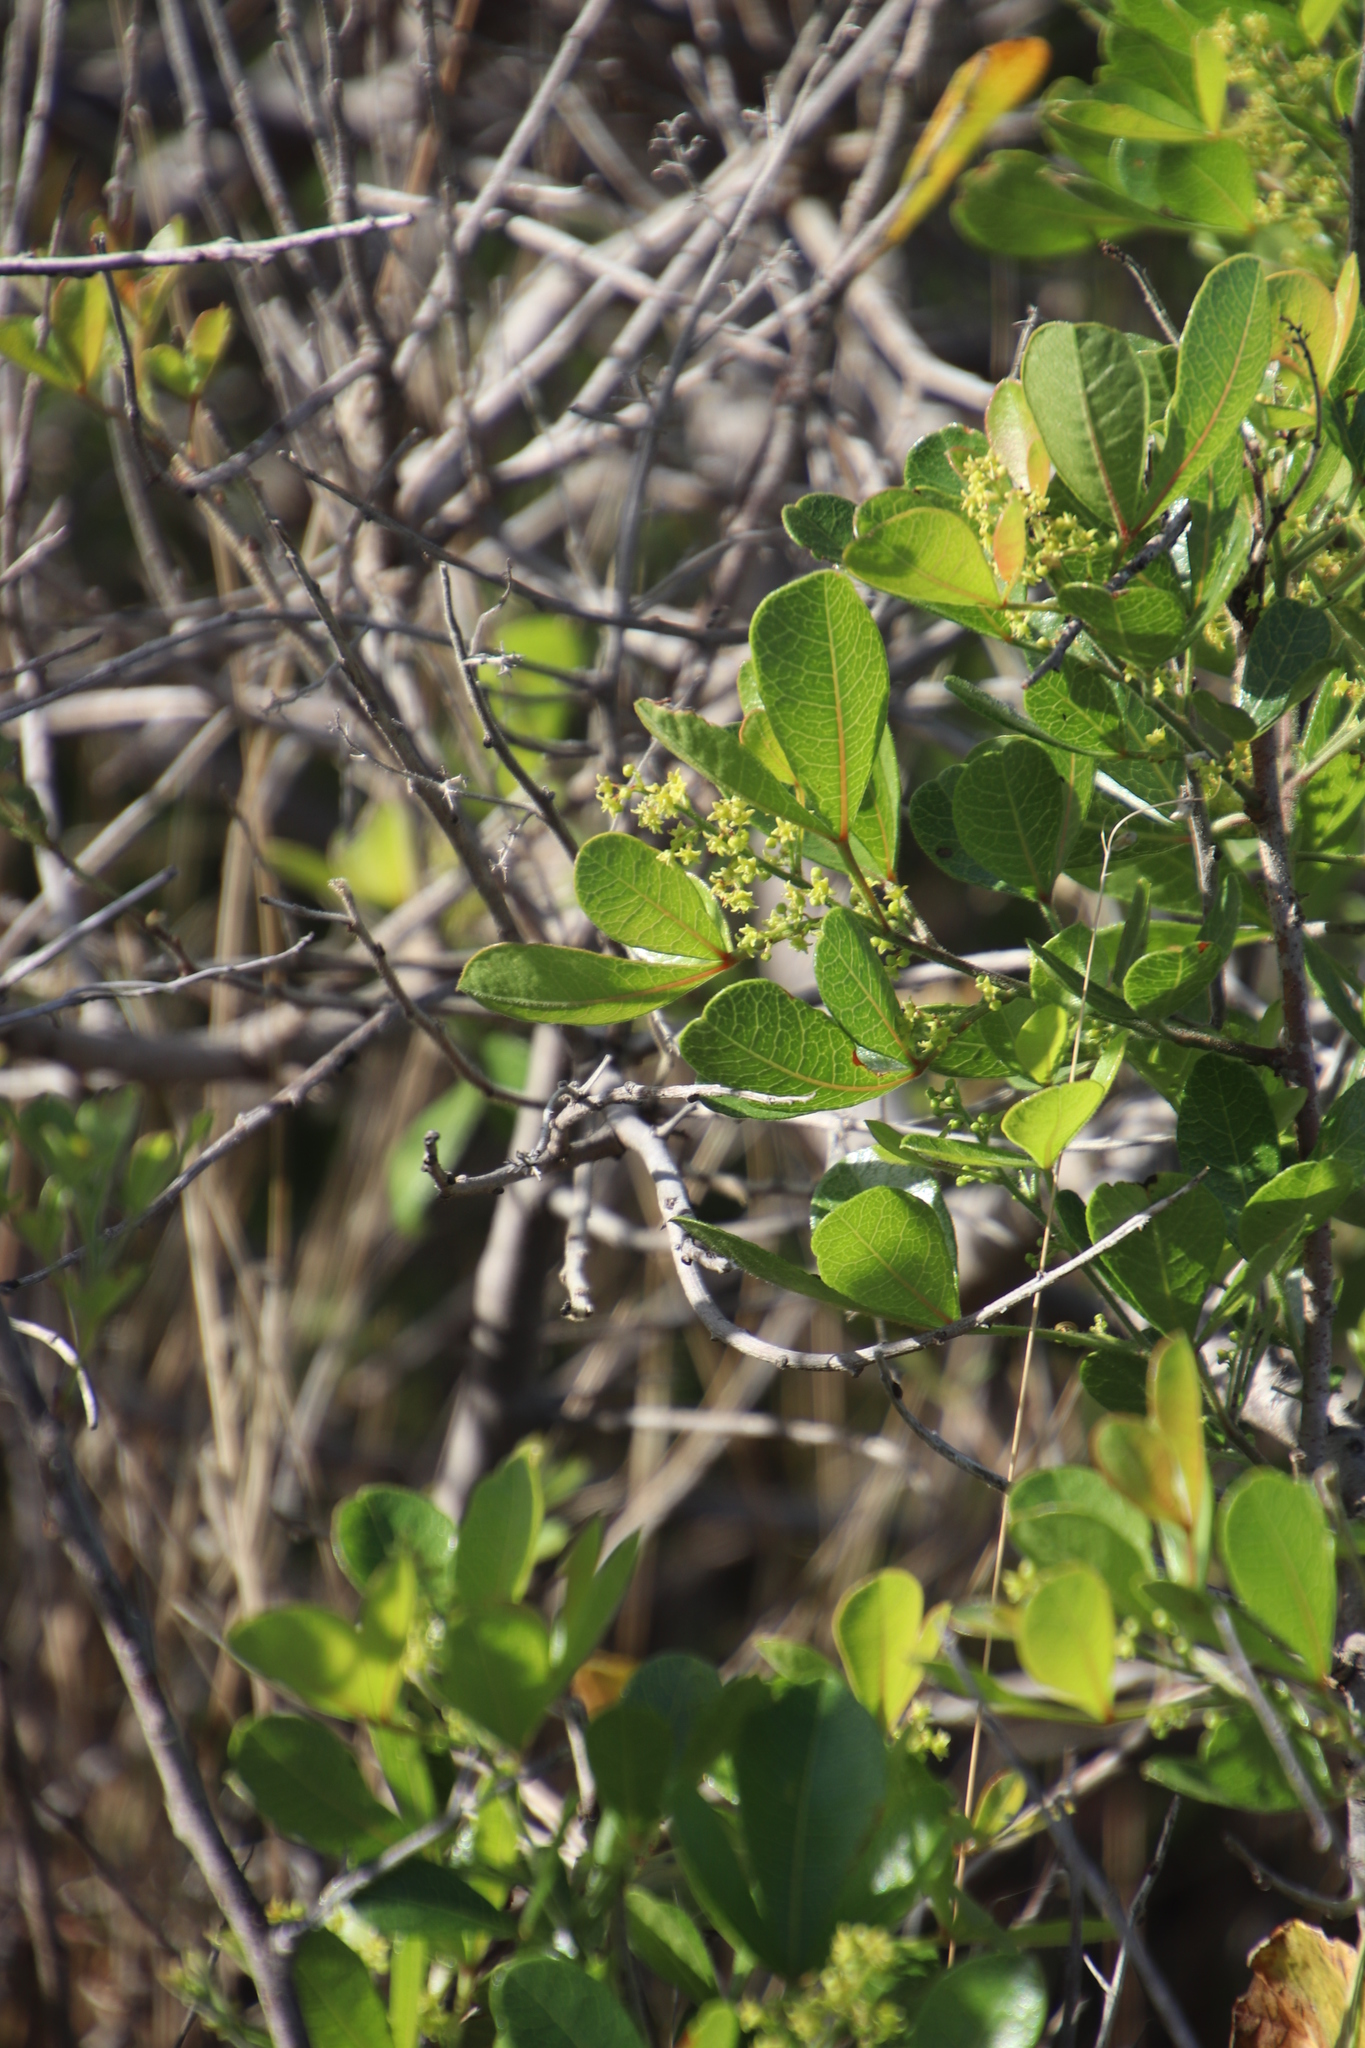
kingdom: Plantae
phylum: Tracheophyta
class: Magnoliopsida
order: Sapindales
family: Anacardiaceae
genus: Searsia
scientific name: Searsia laevigata
